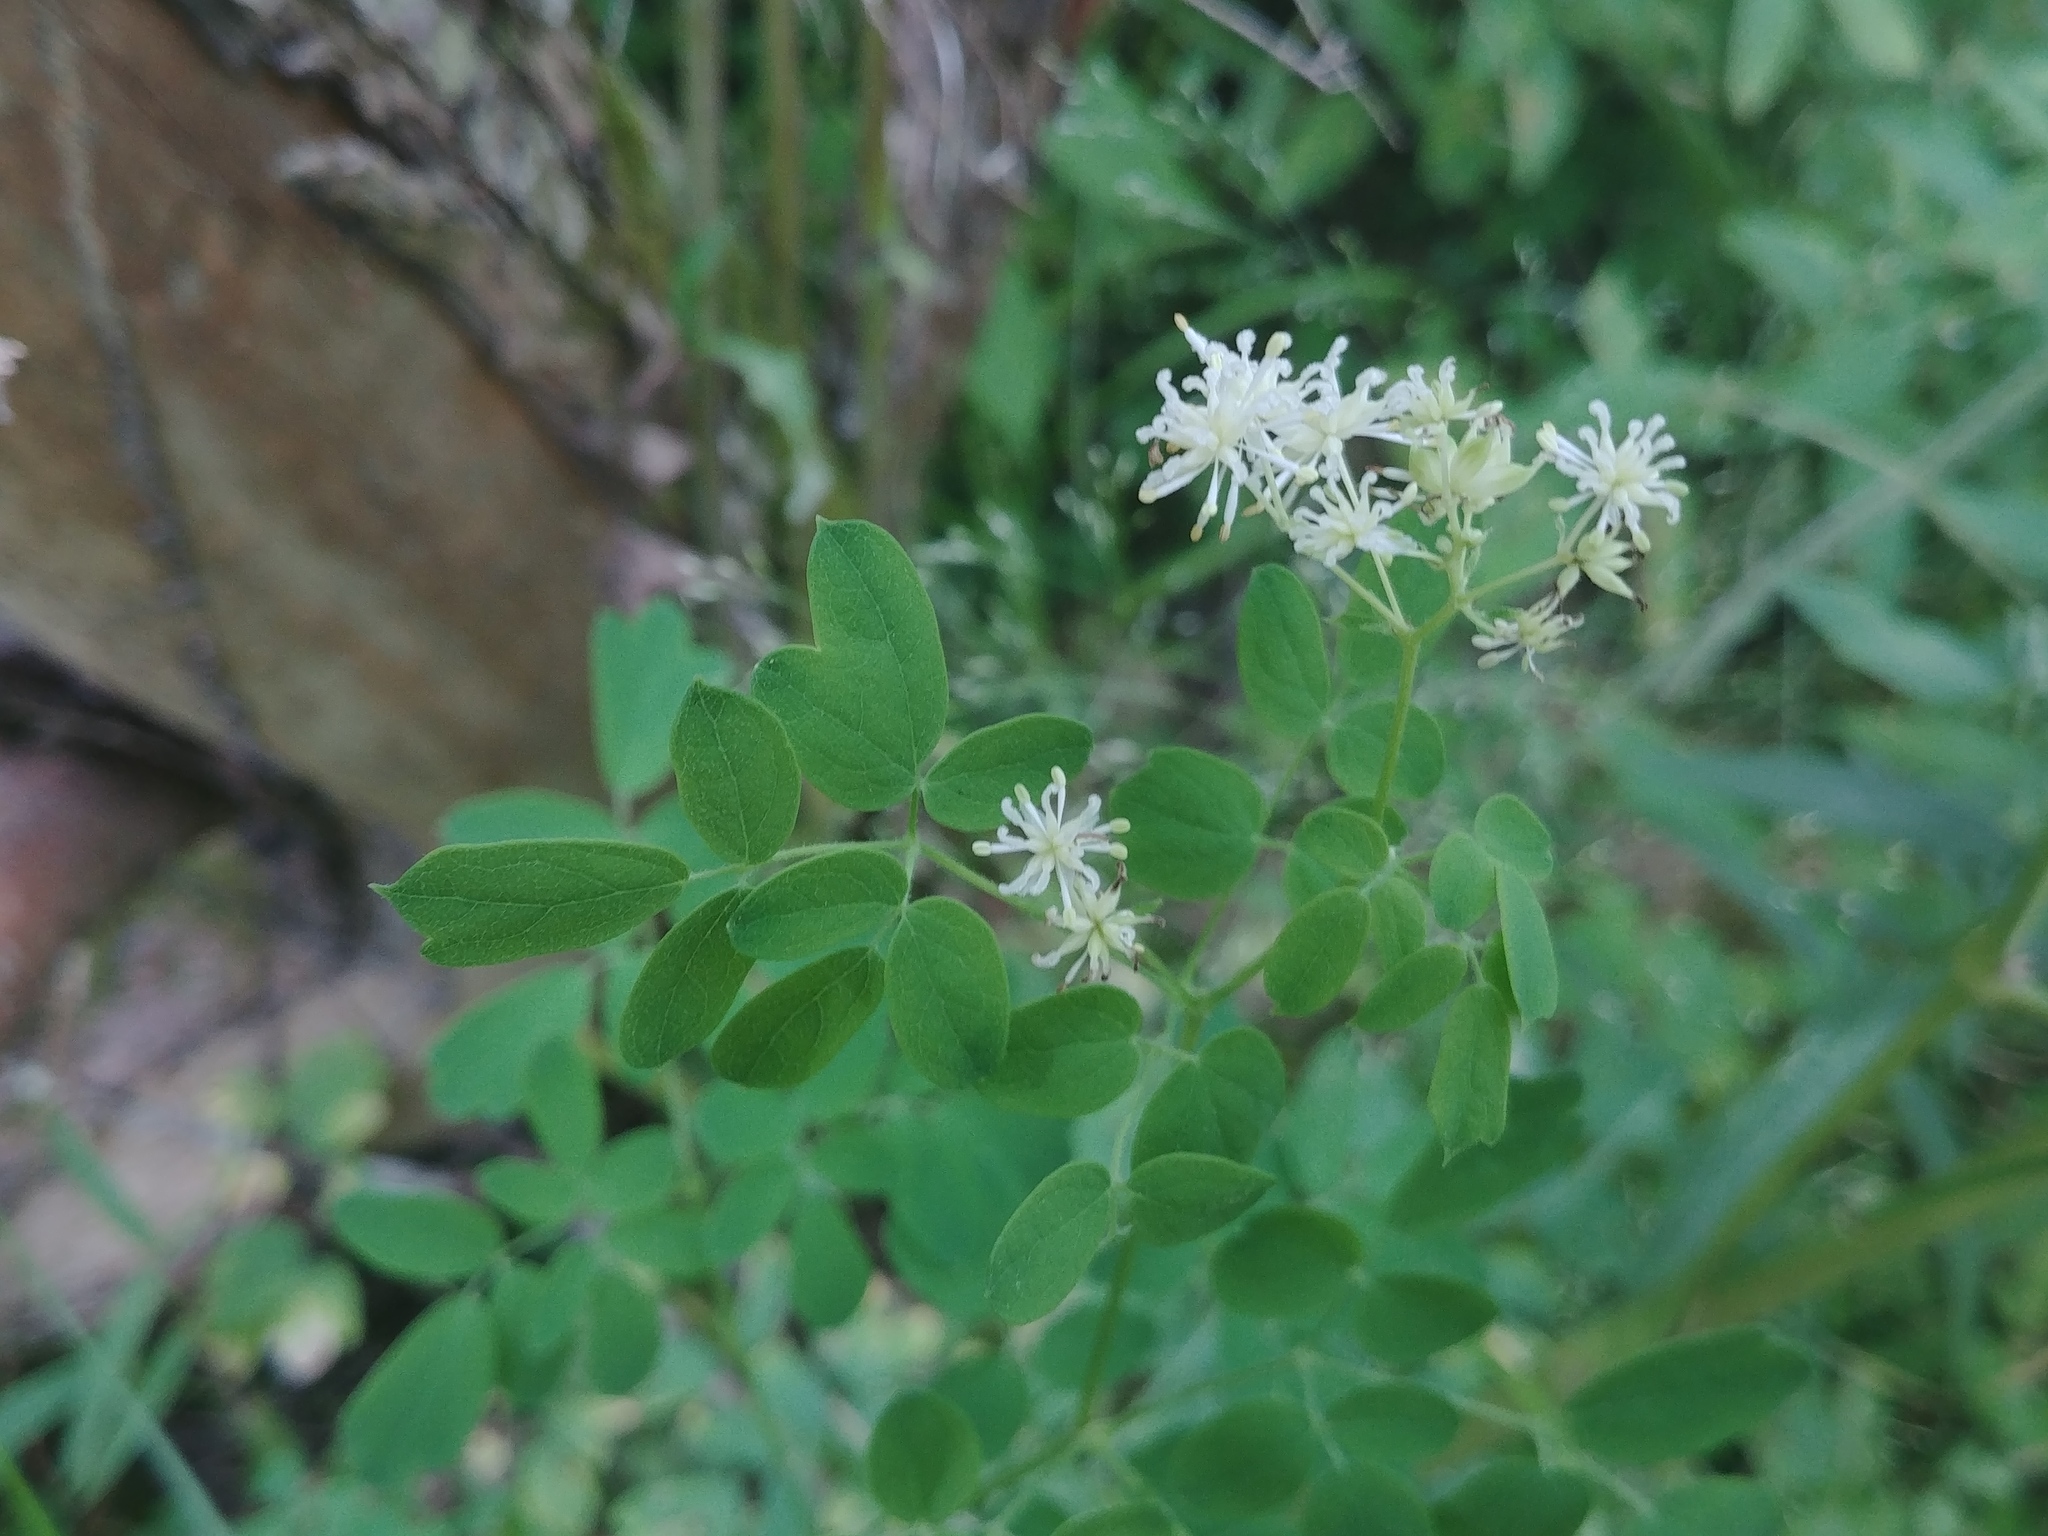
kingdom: Plantae
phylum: Tracheophyta
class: Magnoliopsida
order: Ranunculales
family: Ranunculaceae
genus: Thalictrum
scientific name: Thalictrum pubescens
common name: King-of-the-meadow
